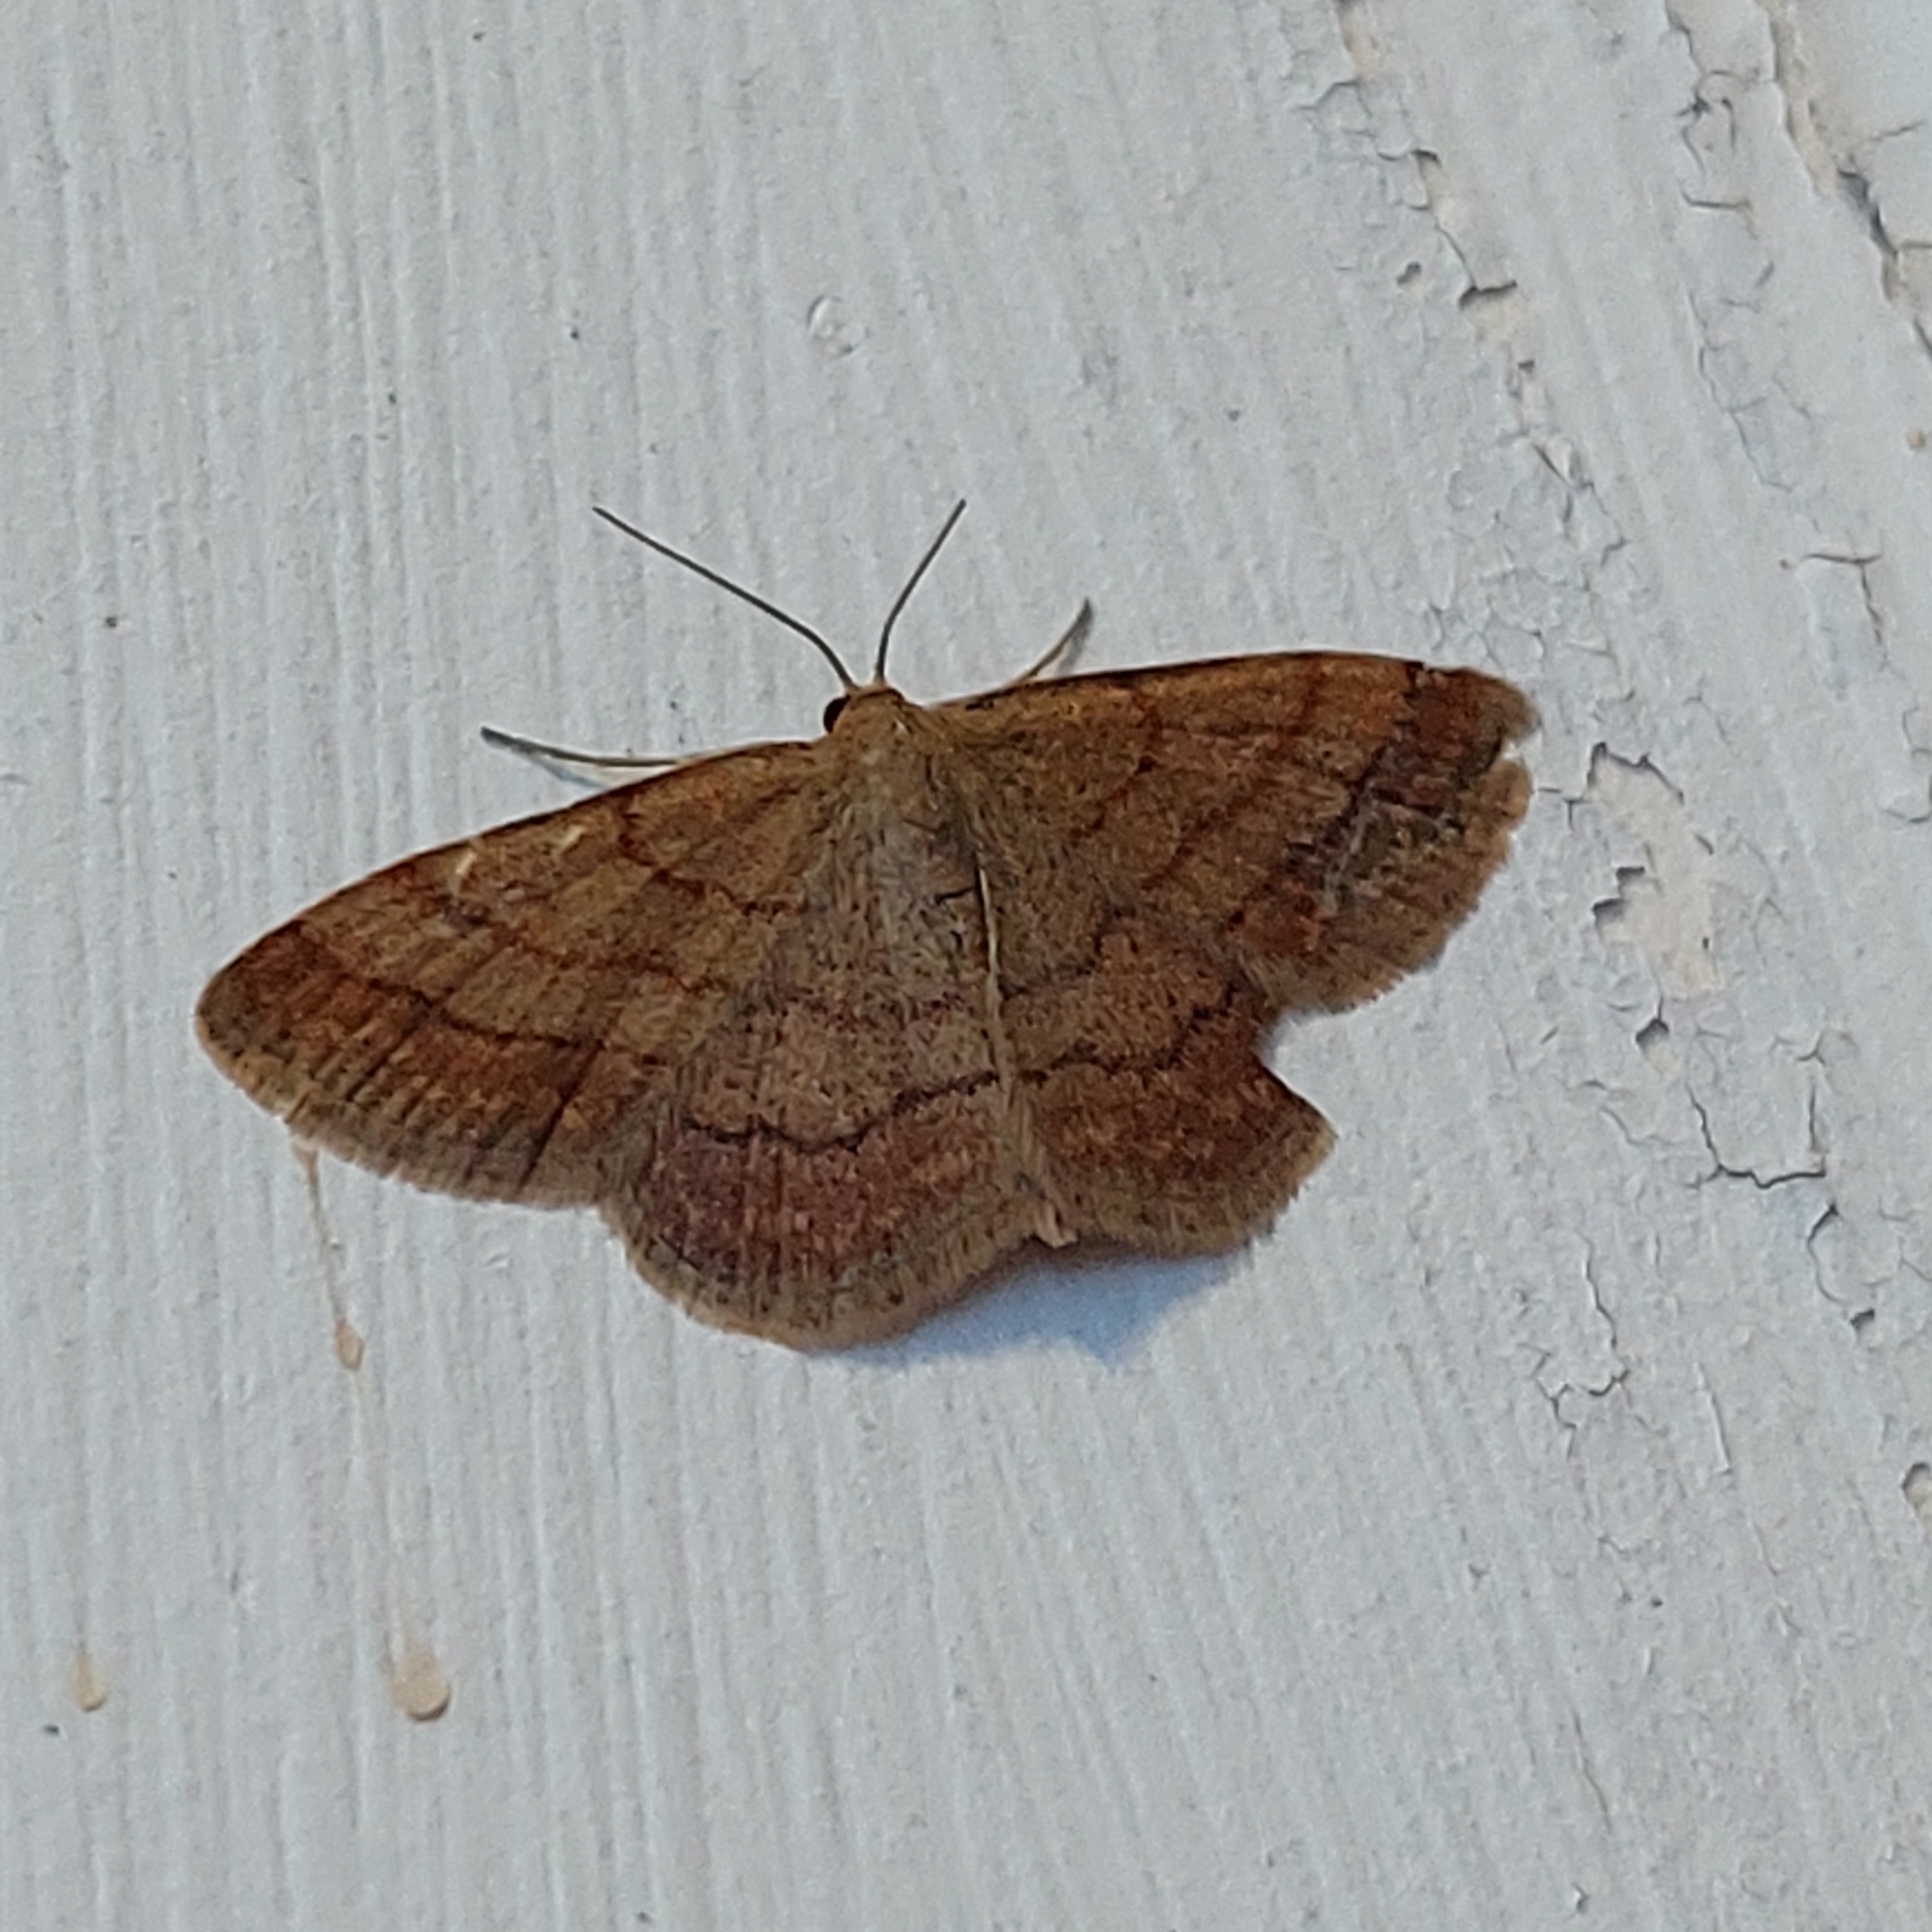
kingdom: Animalia
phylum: Arthropoda
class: Insecta
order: Lepidoptera
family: Geometridae
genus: Scopula
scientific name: Scopula rubiginata
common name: Tawny wave
